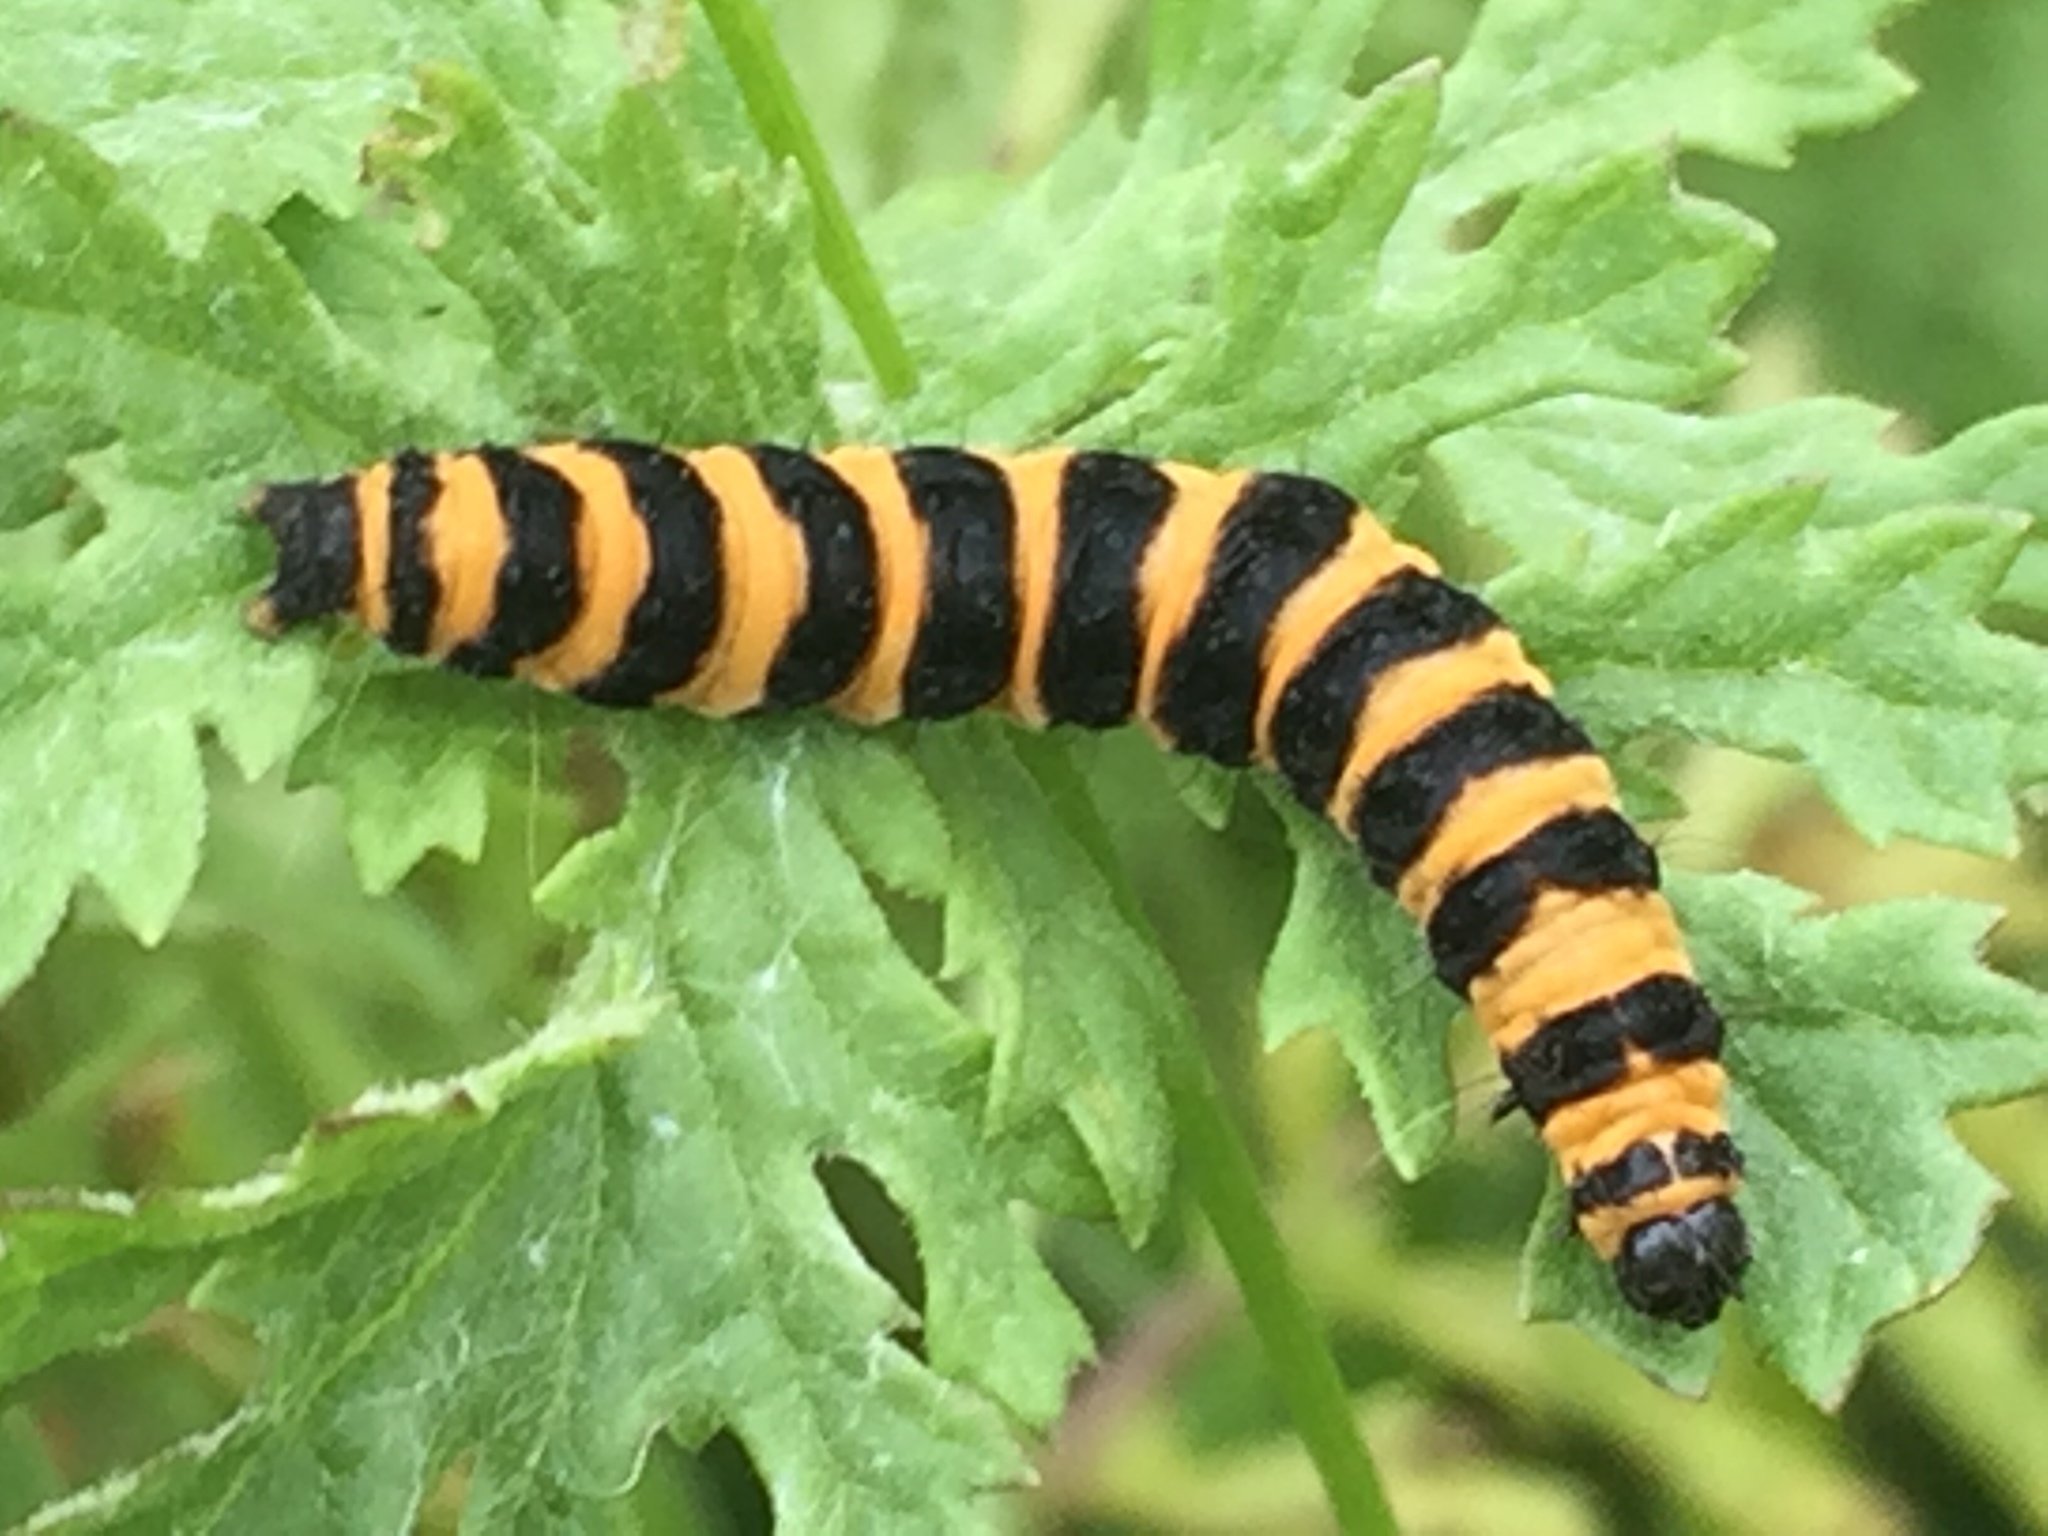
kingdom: Animalia
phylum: Arthropoda
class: Insecta
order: Lepidoptera
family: Erebidae
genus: Tyria
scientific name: Tyria jacobaeae
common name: Cinnabar
